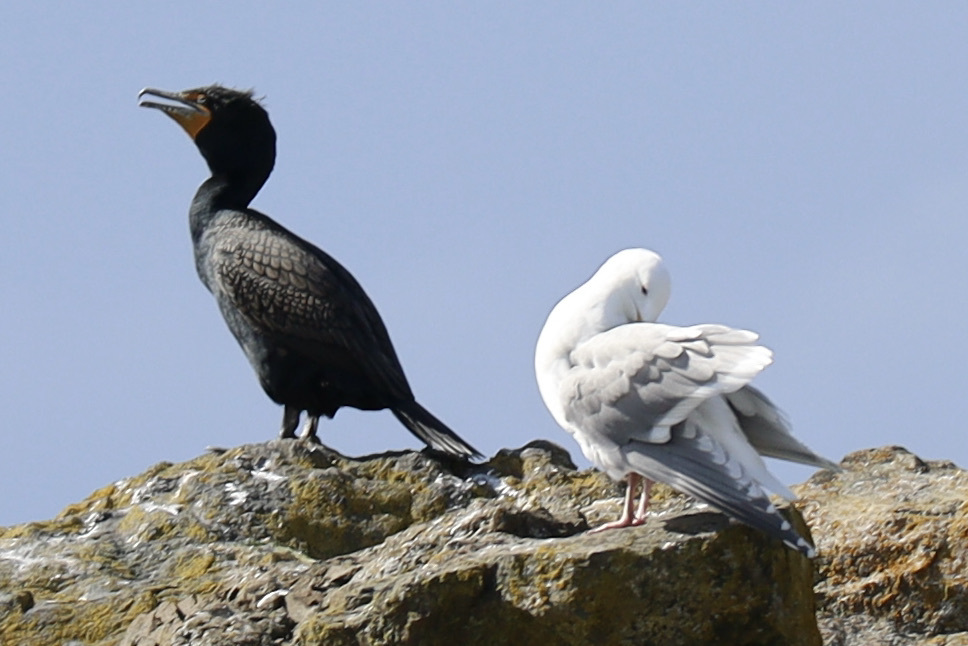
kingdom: Animalia
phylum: Chordata
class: Aves
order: Suliformes
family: Phalacrocoracidae
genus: Phalacrocorax
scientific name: Phalacrocorax auritus
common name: Double-crested cormorant
